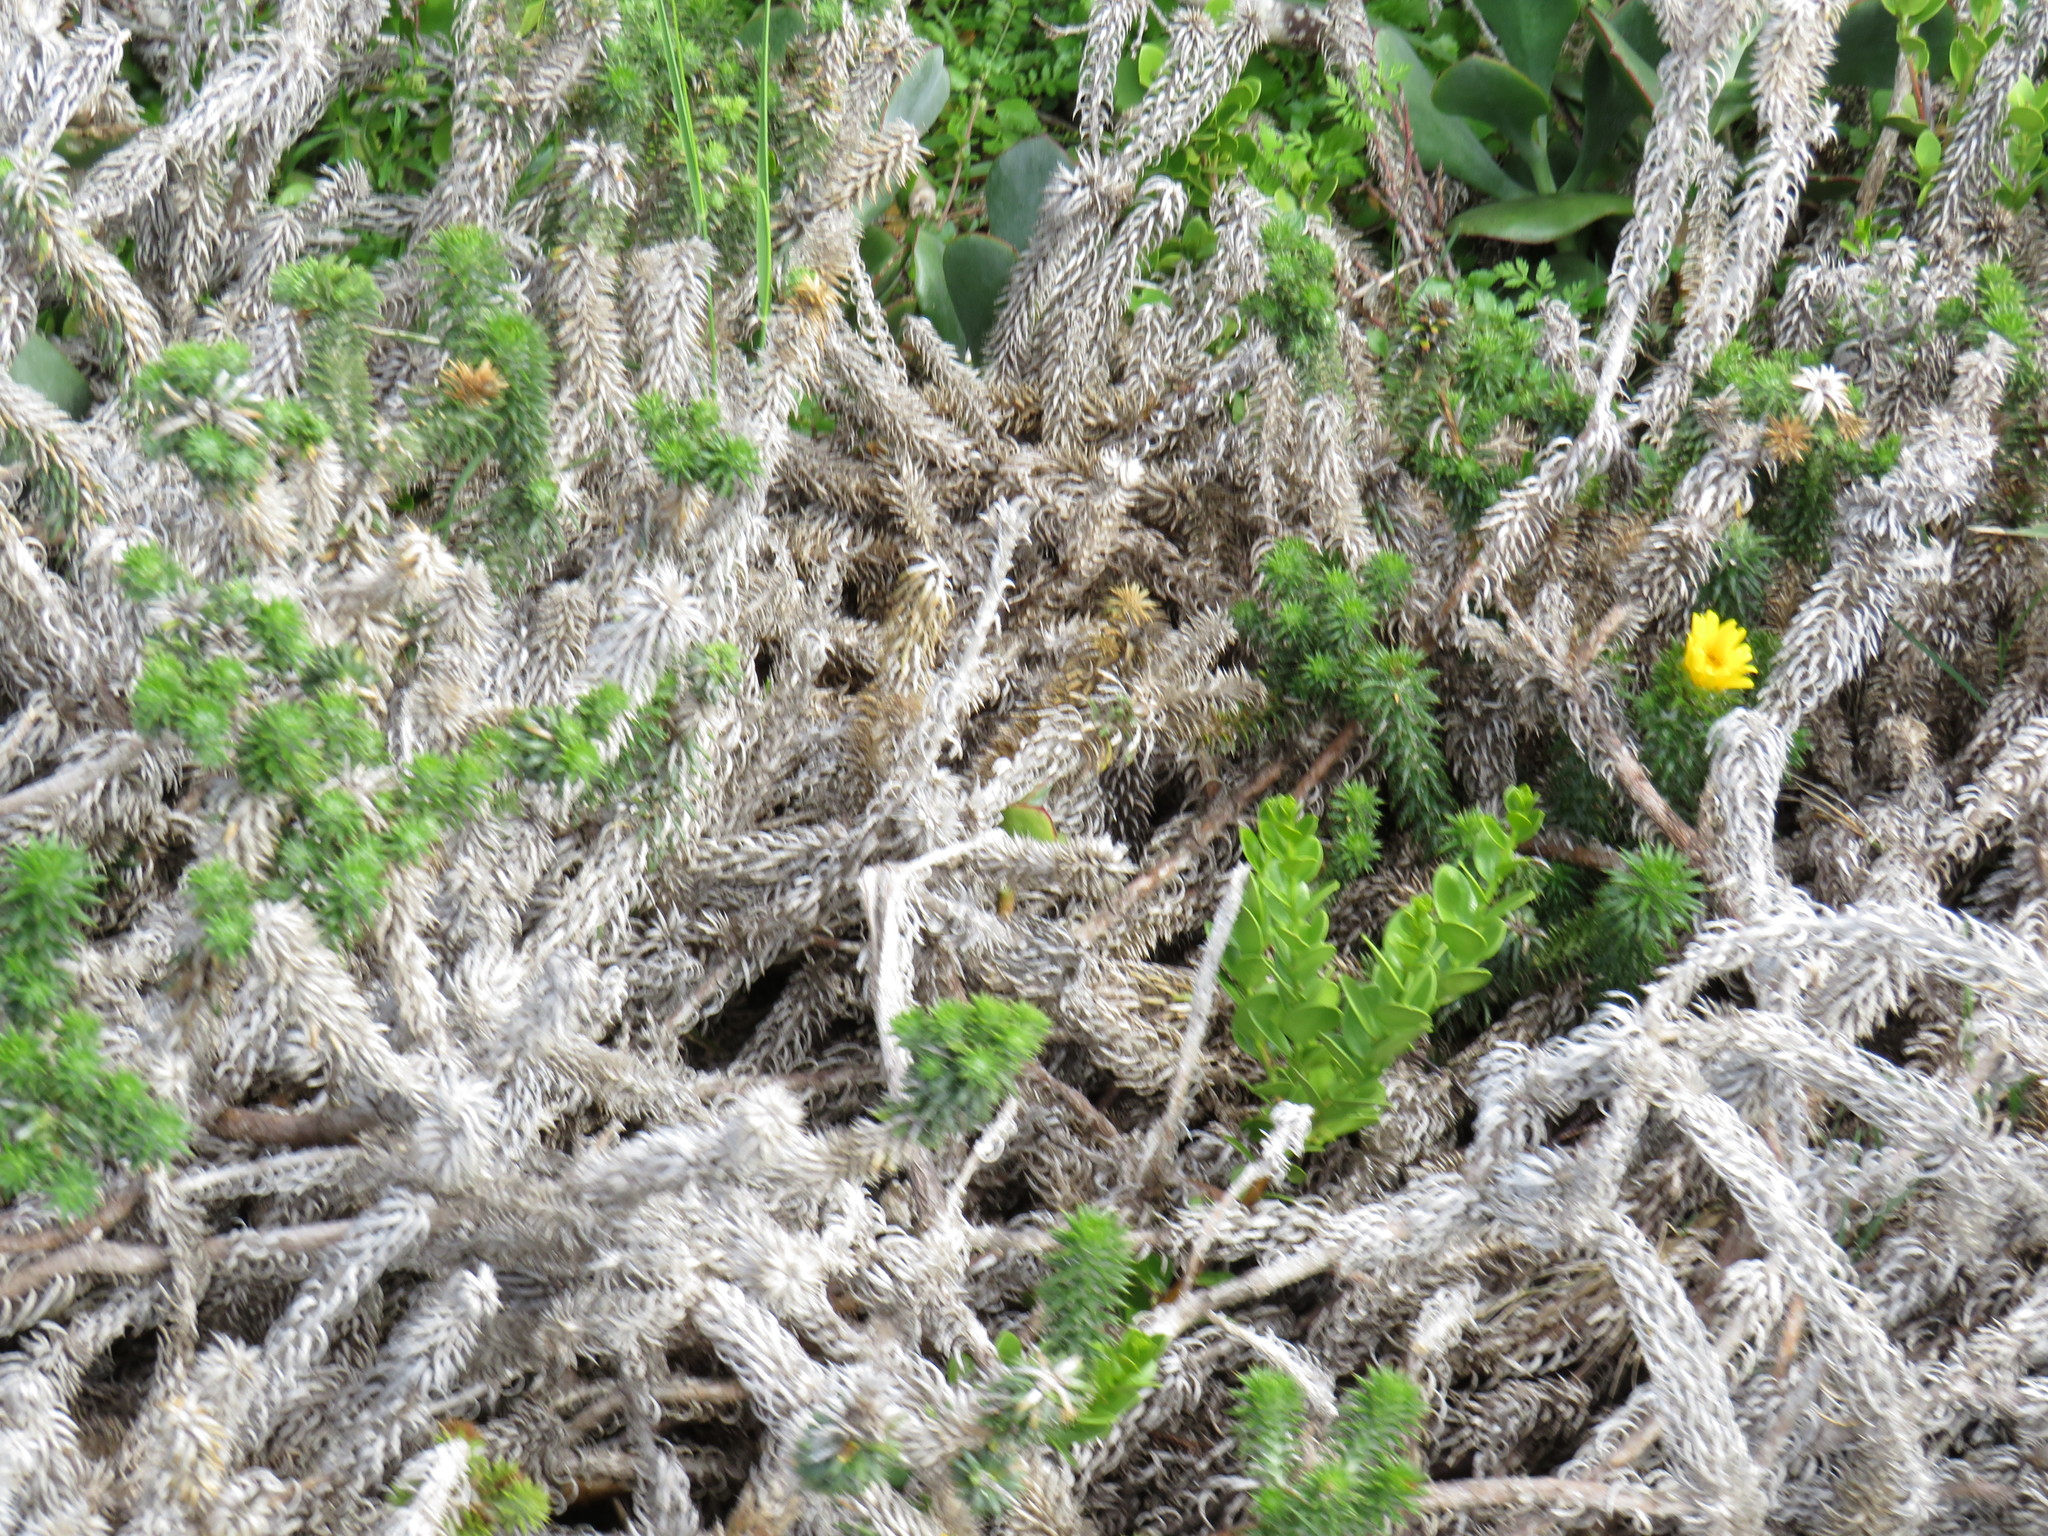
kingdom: Plantae
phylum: Tracheophyta
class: Magnoliopsida
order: Asterales
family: Asteraceae
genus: Cullumia
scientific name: Cullumia squarrosa
